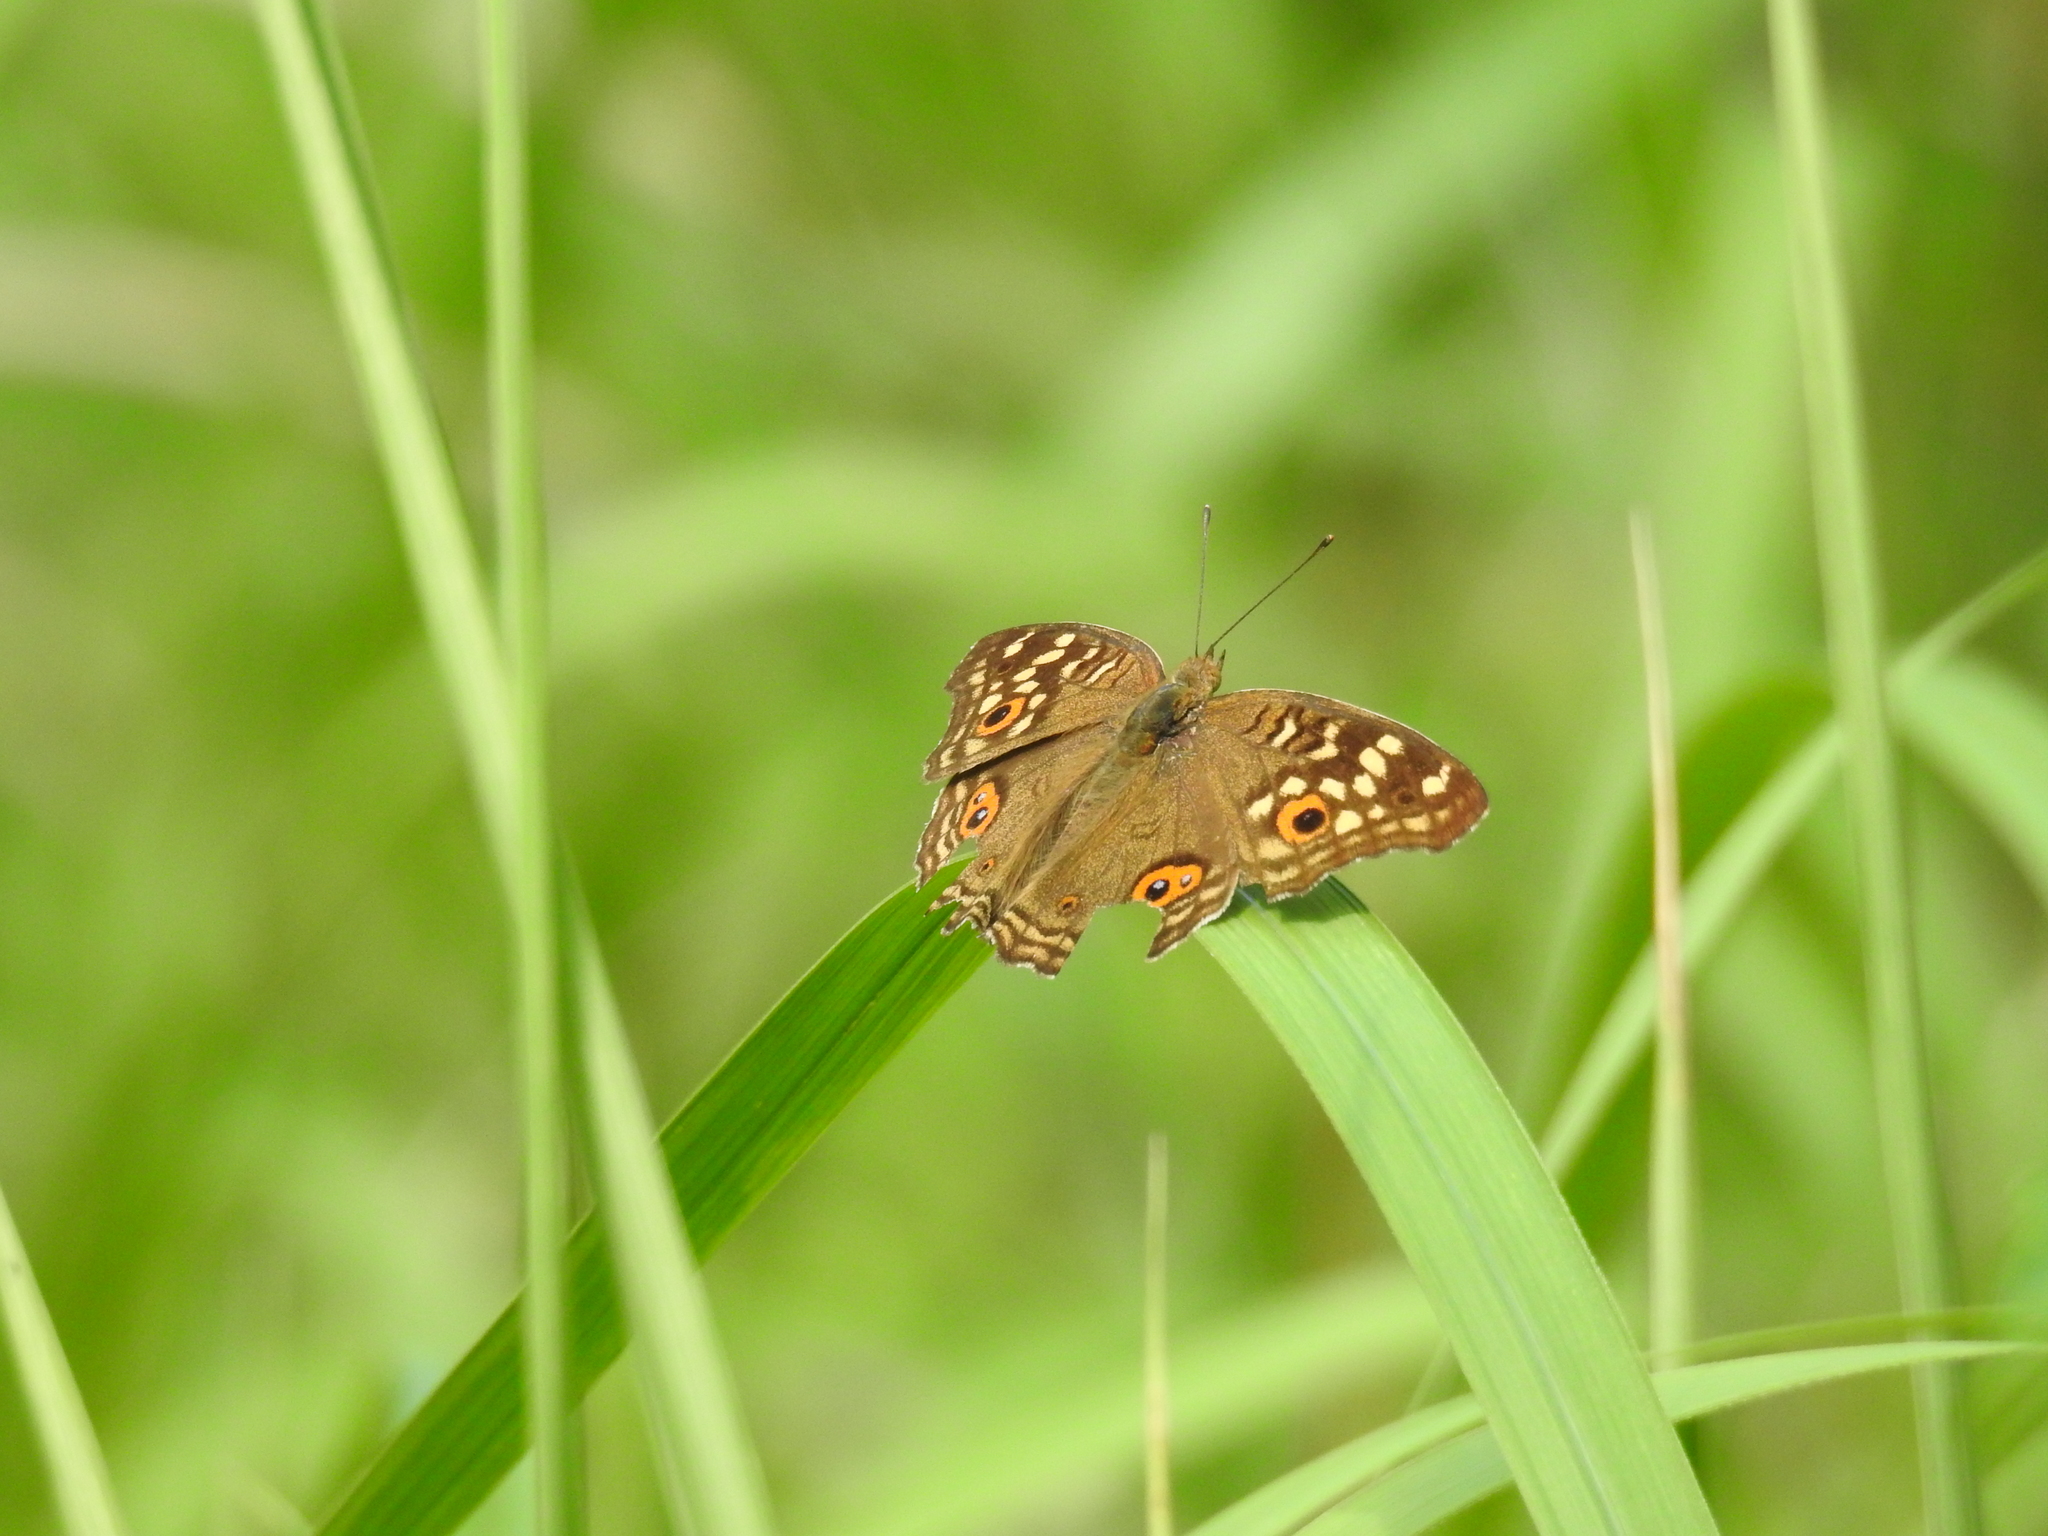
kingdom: Animalia
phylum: Arthropoda
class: Insecta
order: Lepidoptera
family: Nymphalidae
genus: Junonia
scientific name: Junonia lemonias
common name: Lemon pansy
